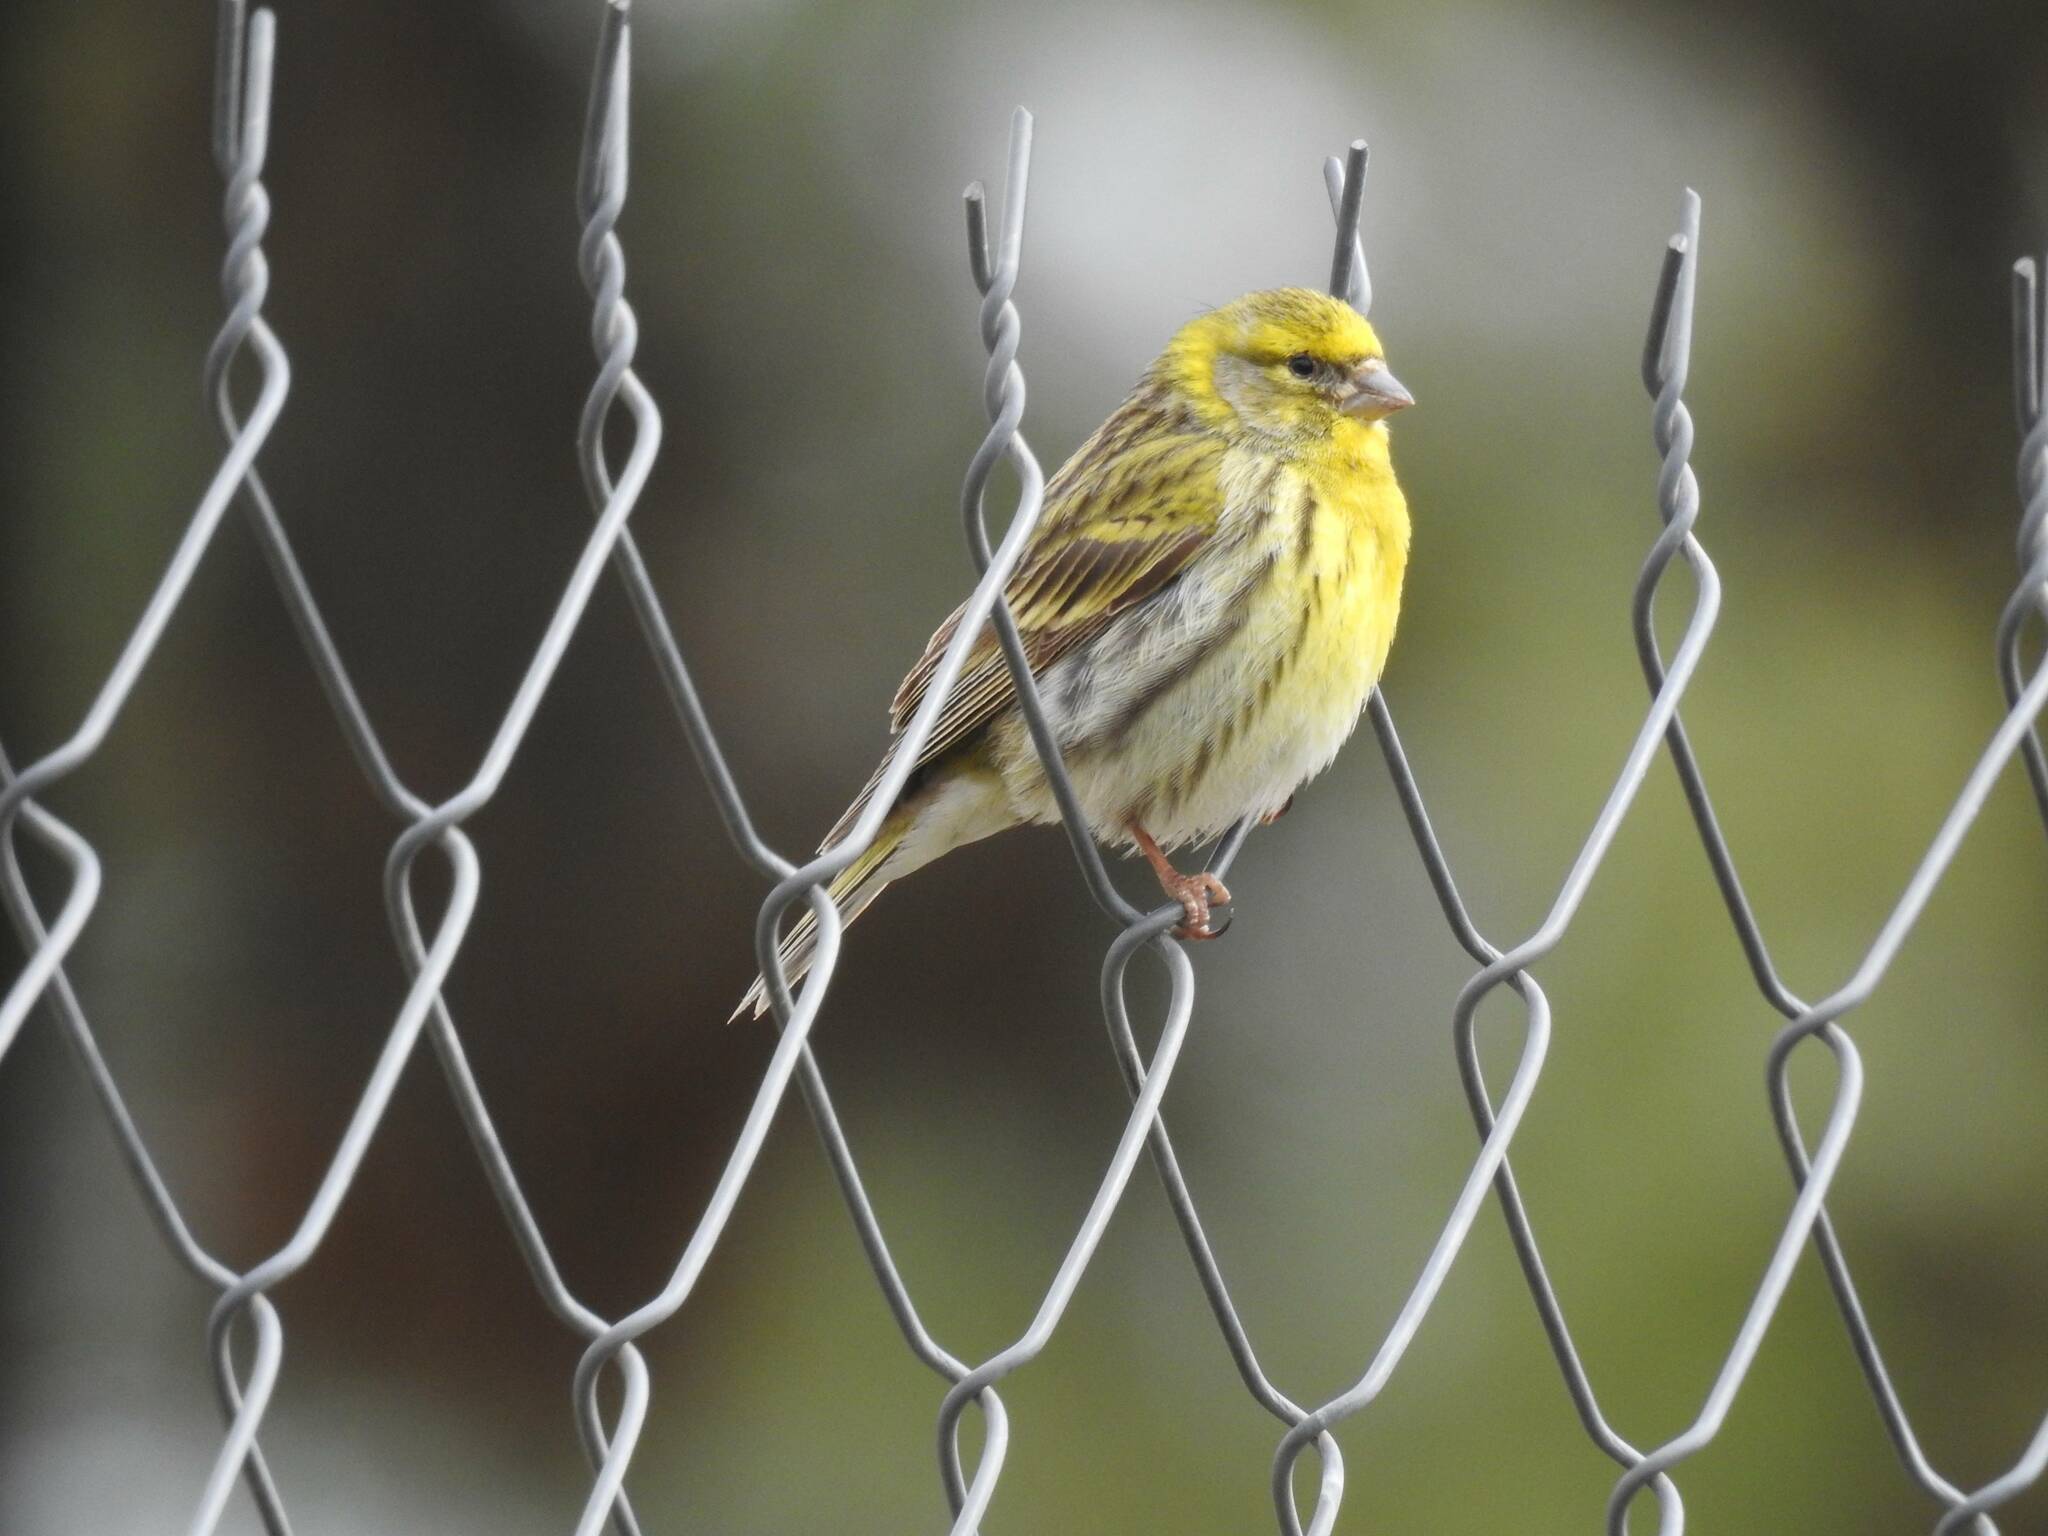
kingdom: Animalia
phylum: Chordata
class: Aves
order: Passeriformes
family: Fringillidae
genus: Serinus
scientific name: Serinus serinus
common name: European serin
